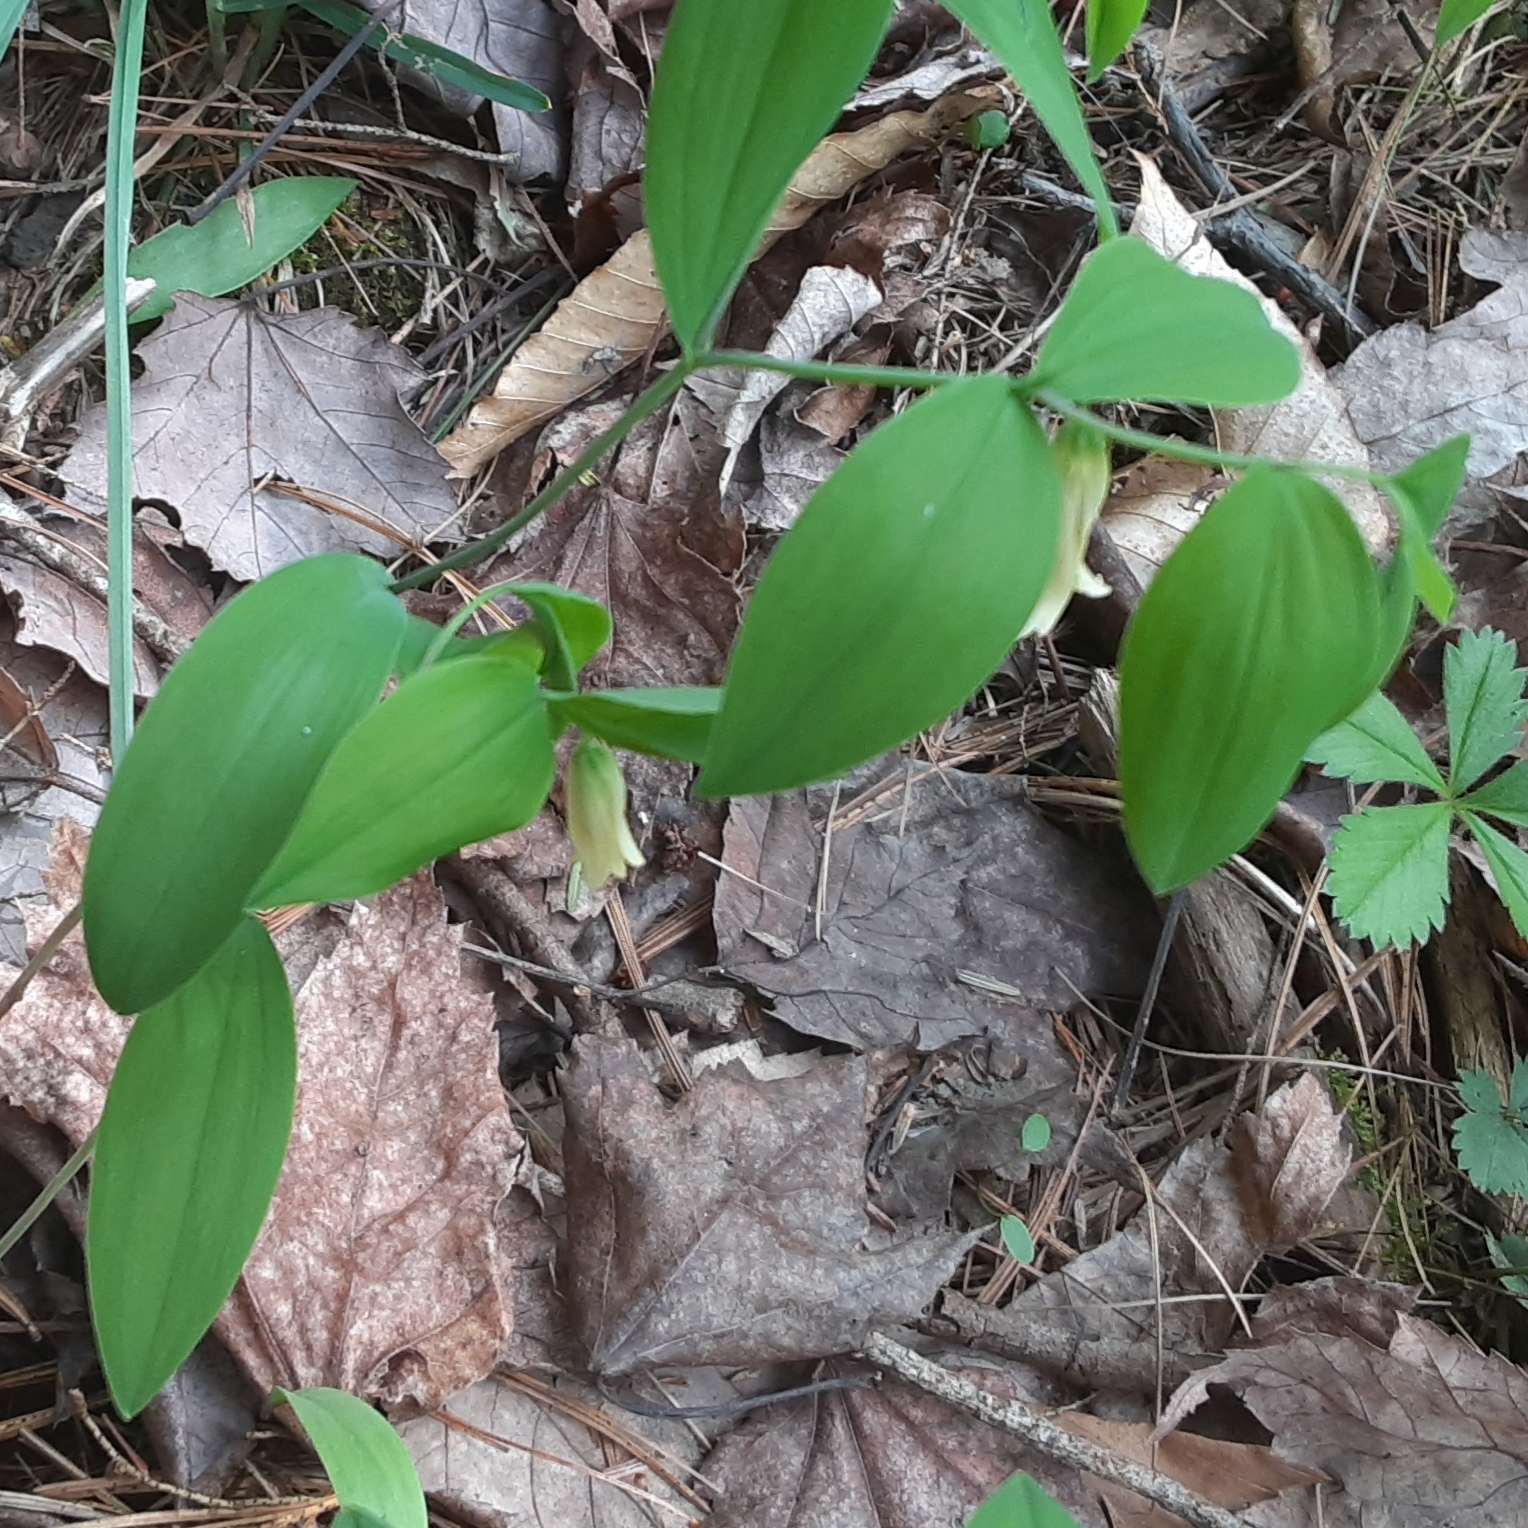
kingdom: Plantae
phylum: Tracheophyta
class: Liliopsida
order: Liliales
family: Colchicaceae
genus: Uvularia
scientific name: Uvularia sessilifolia
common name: Straw-lily
